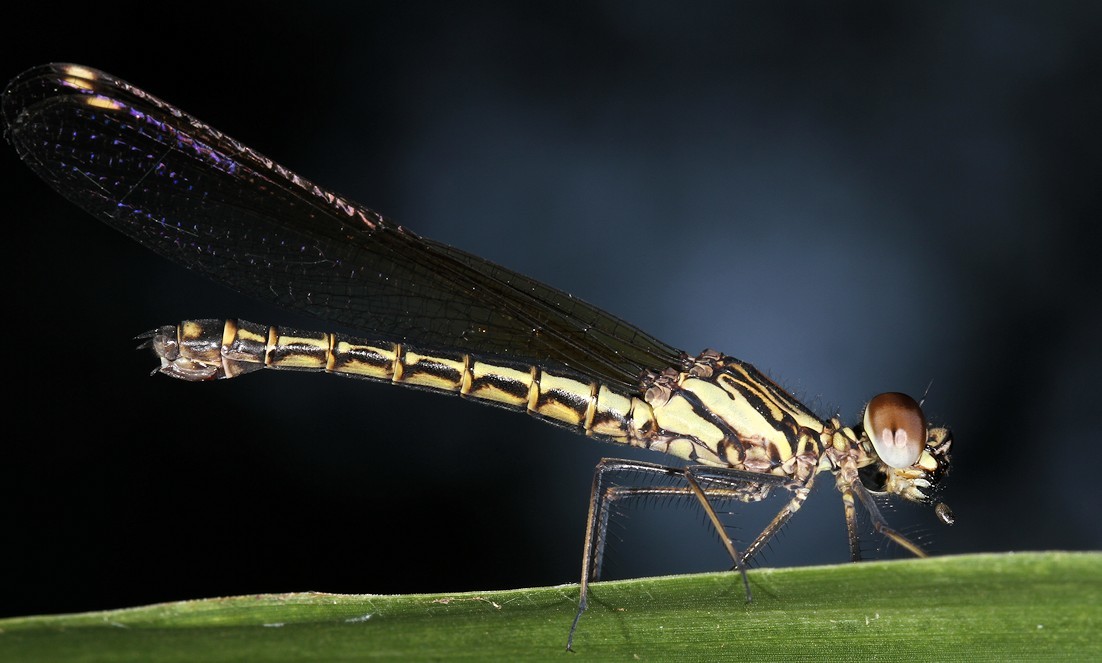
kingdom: Animalia
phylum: Arthropoda
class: Insecta
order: Odonata
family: Chlorocyphidae
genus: Platycypha
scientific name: Platycypha caligata
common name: Dancing jewel
